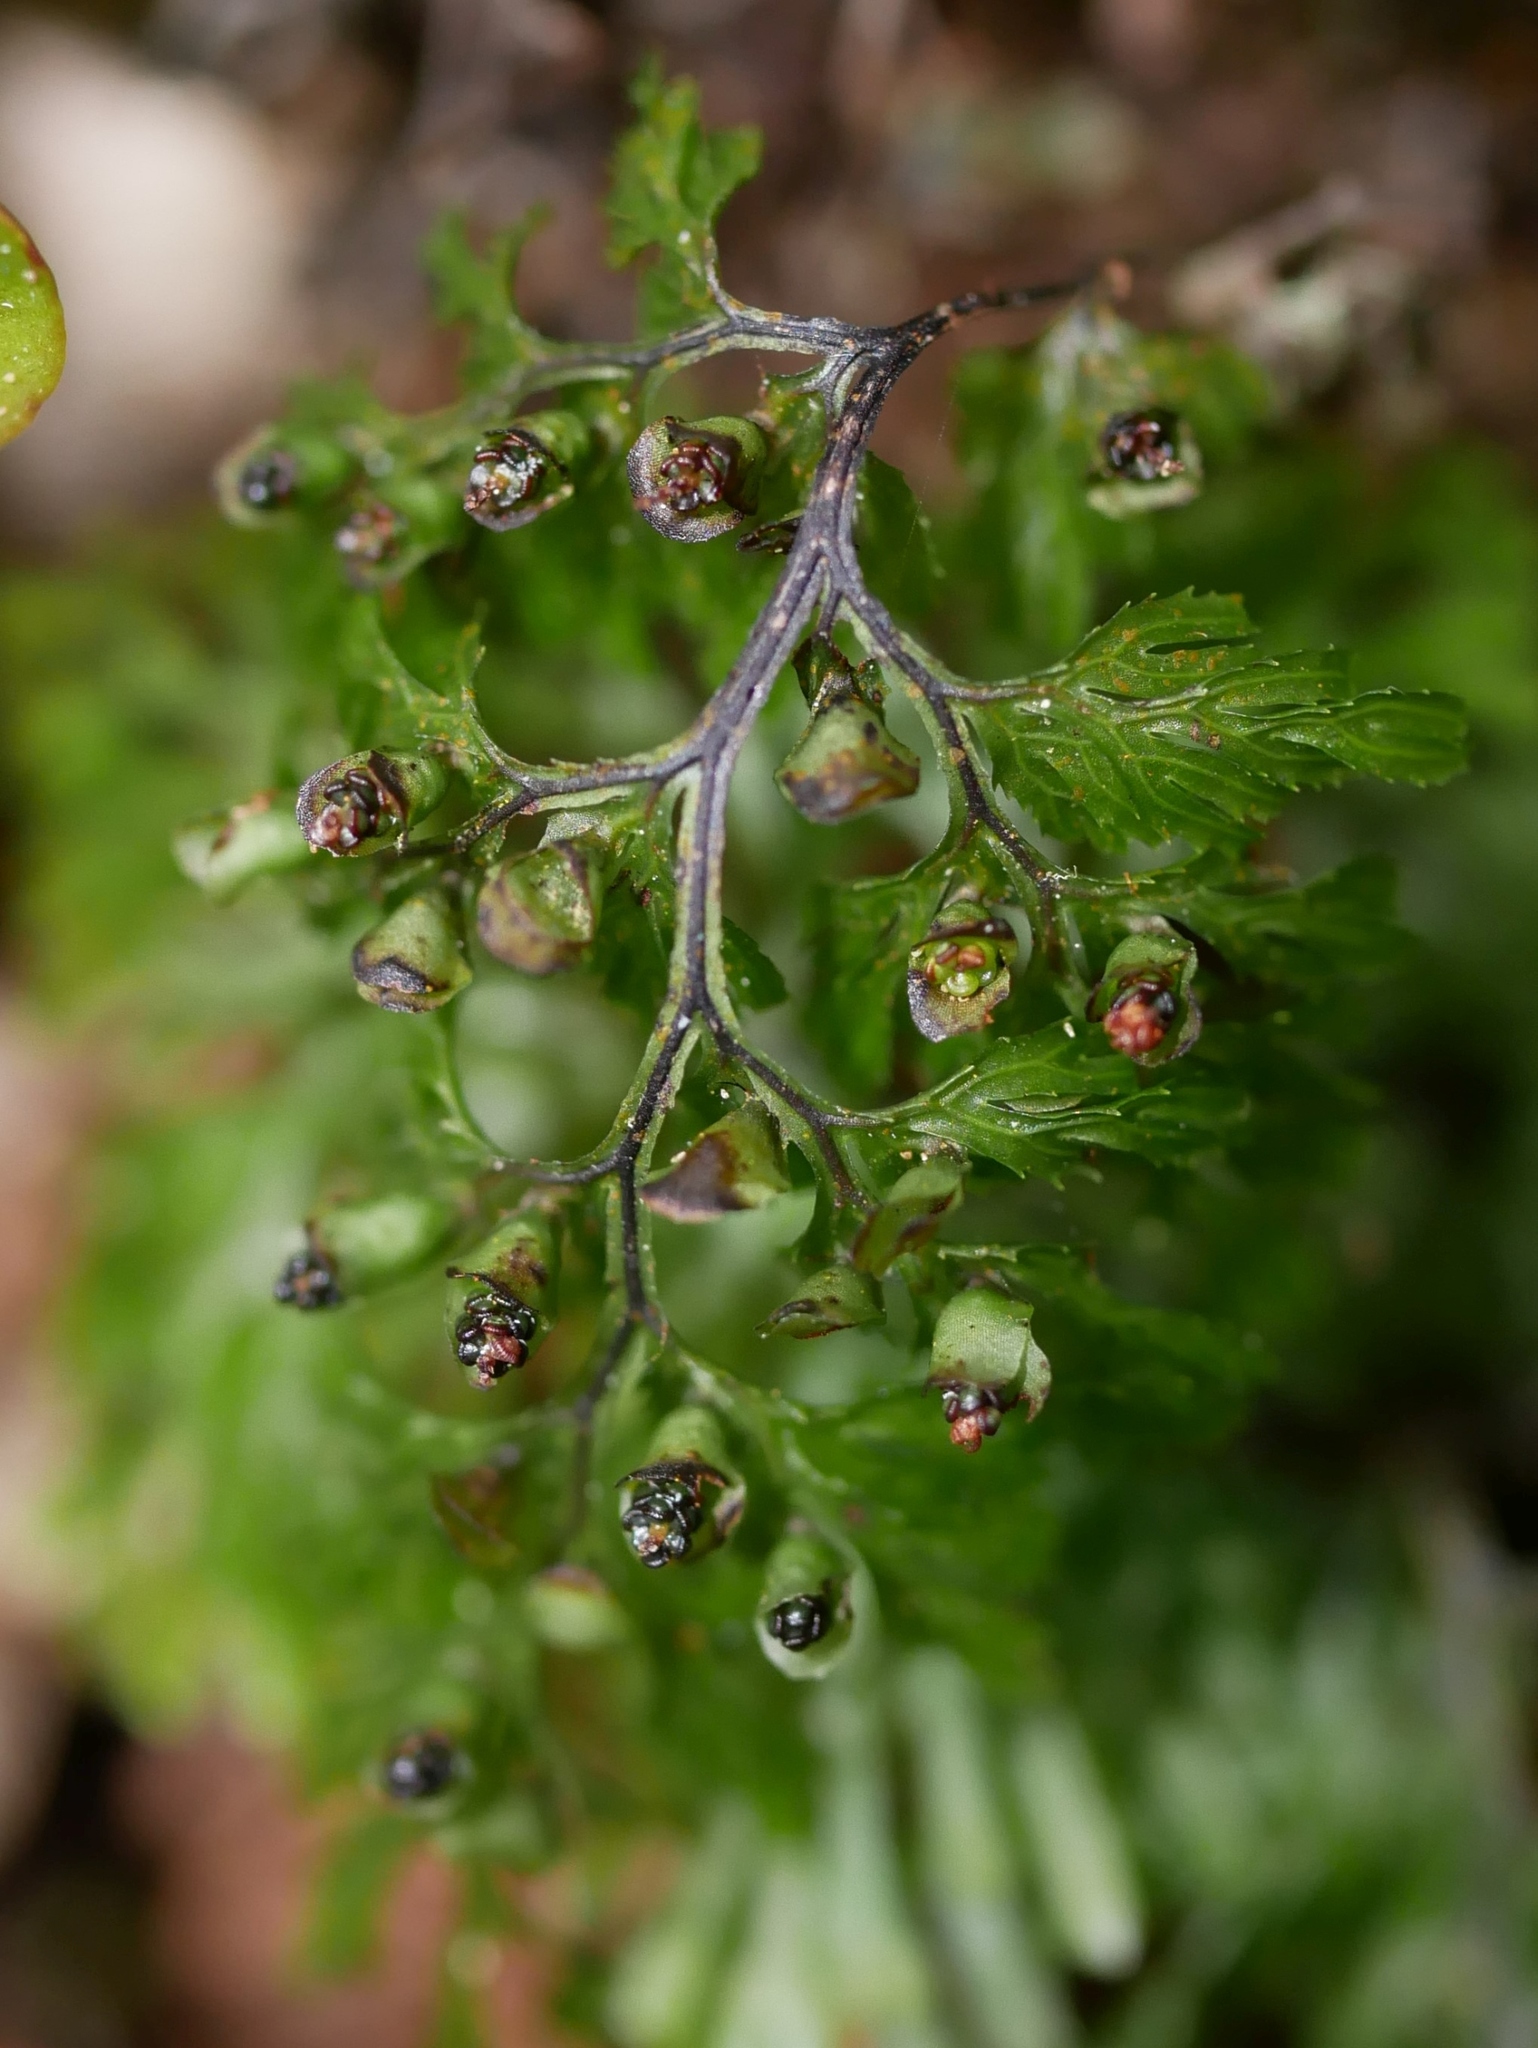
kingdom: Plantae
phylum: Tracheophyta
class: Polypodiopsida
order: Hymenophyllales
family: Hymenophyllaceae
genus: Hymenophyllum
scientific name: Hymenophyllum multifidum
